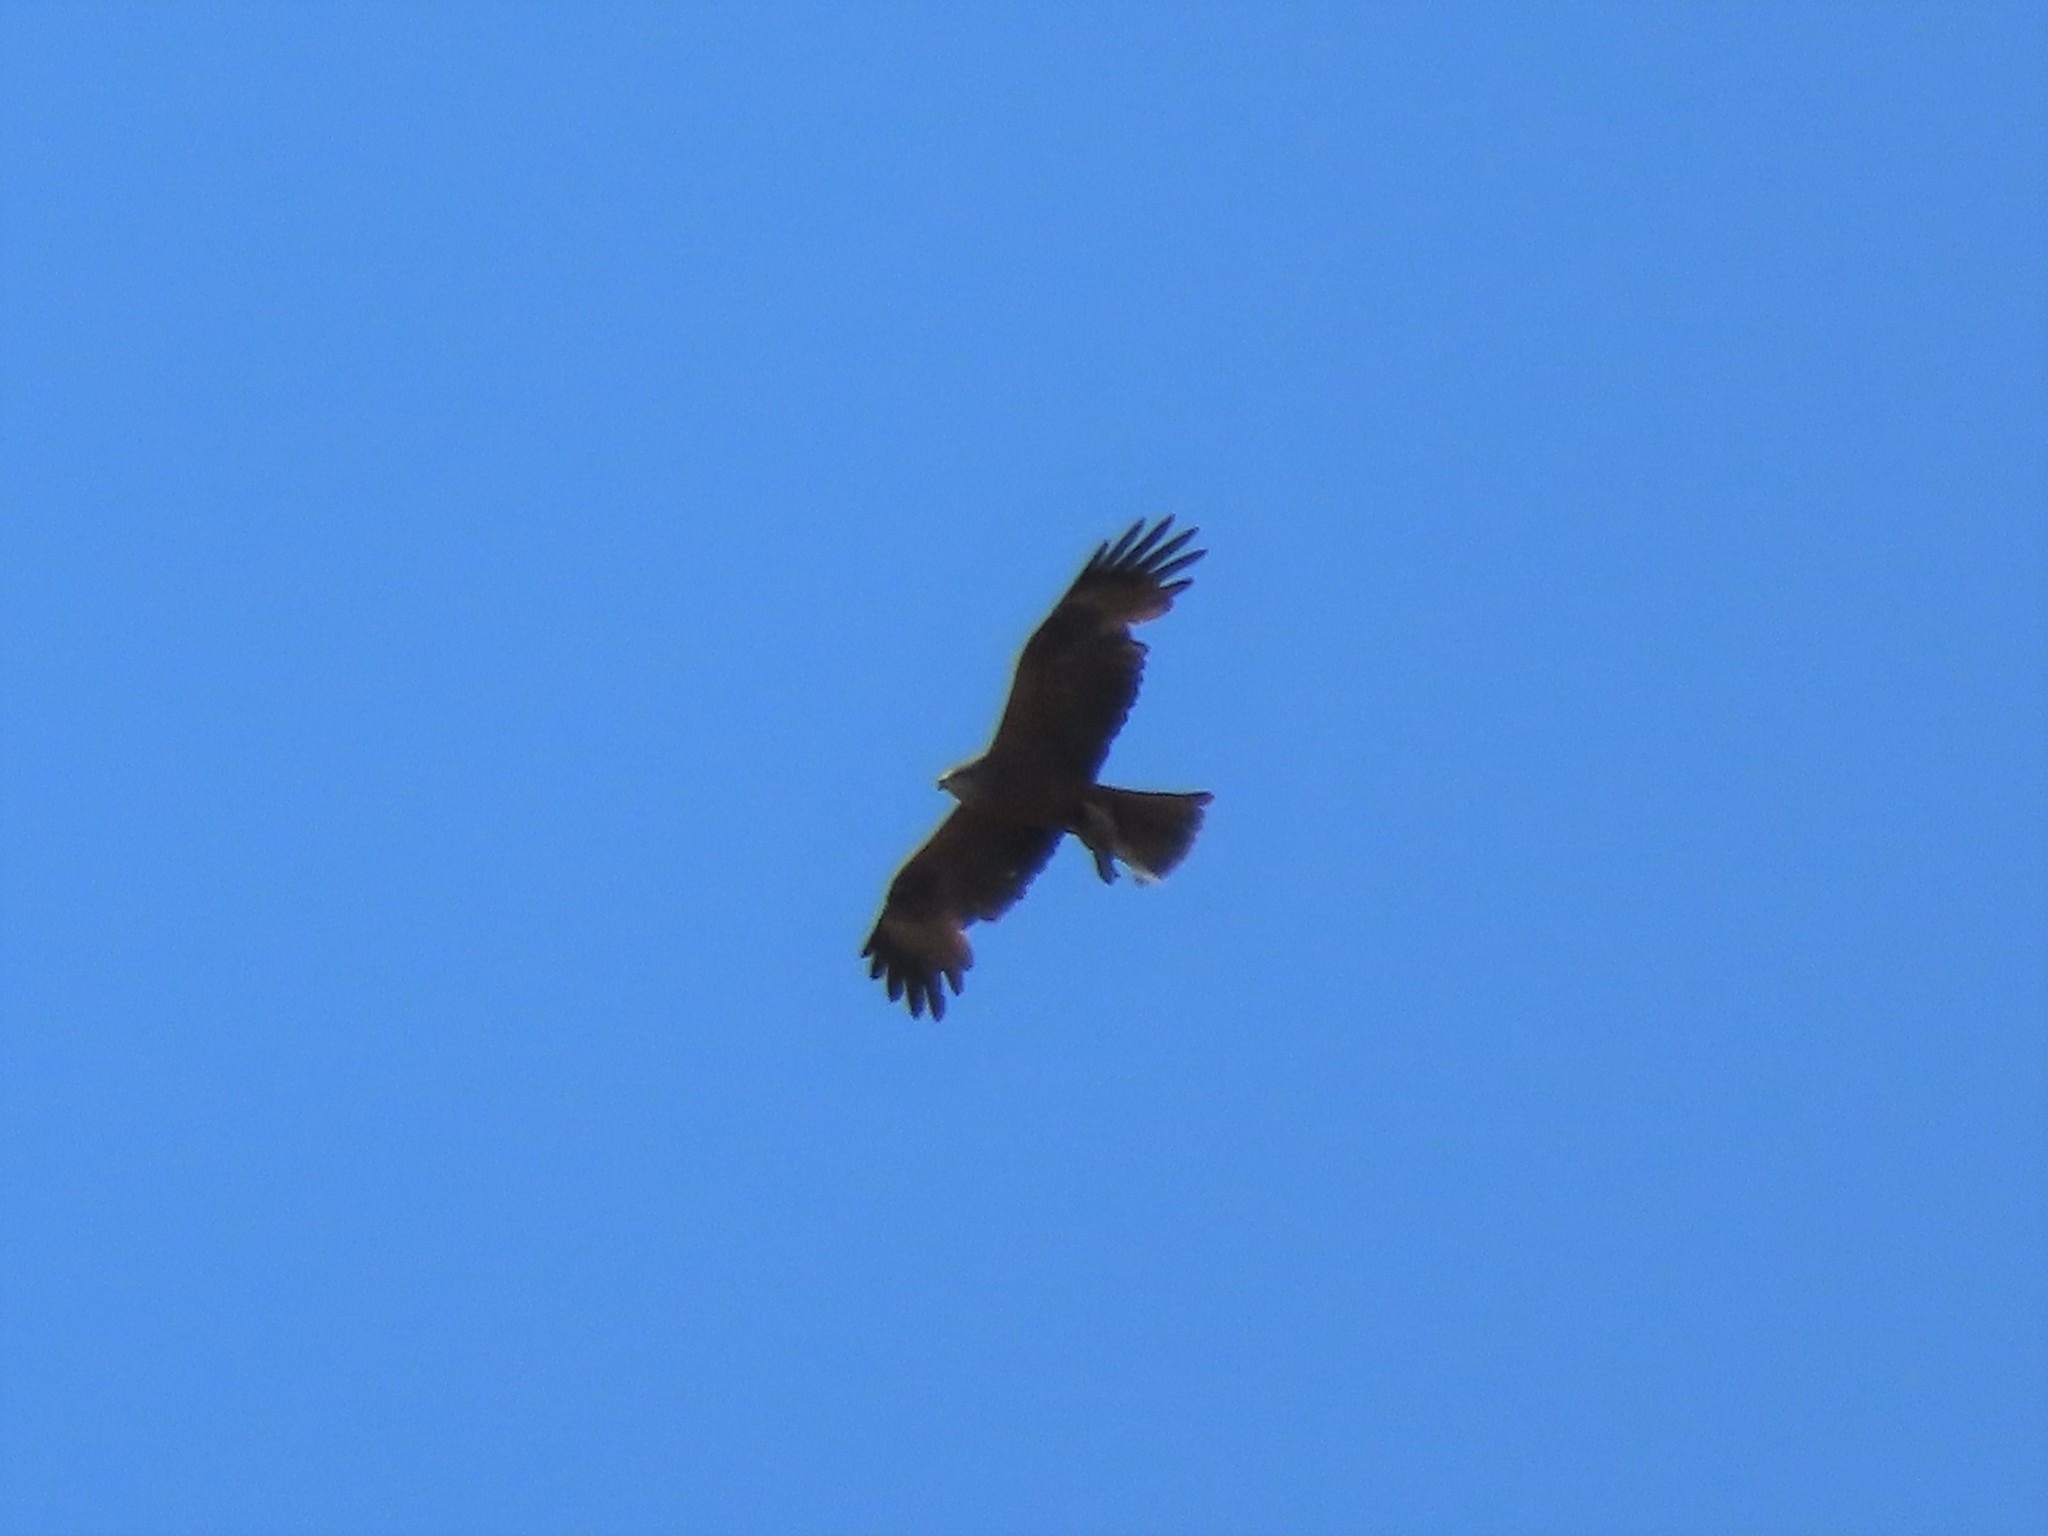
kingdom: Animalia
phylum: Chordata
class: Aves
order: Accipitriformes
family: Accipitridae
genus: Milvus
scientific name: Milvus migrans
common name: Black kite
